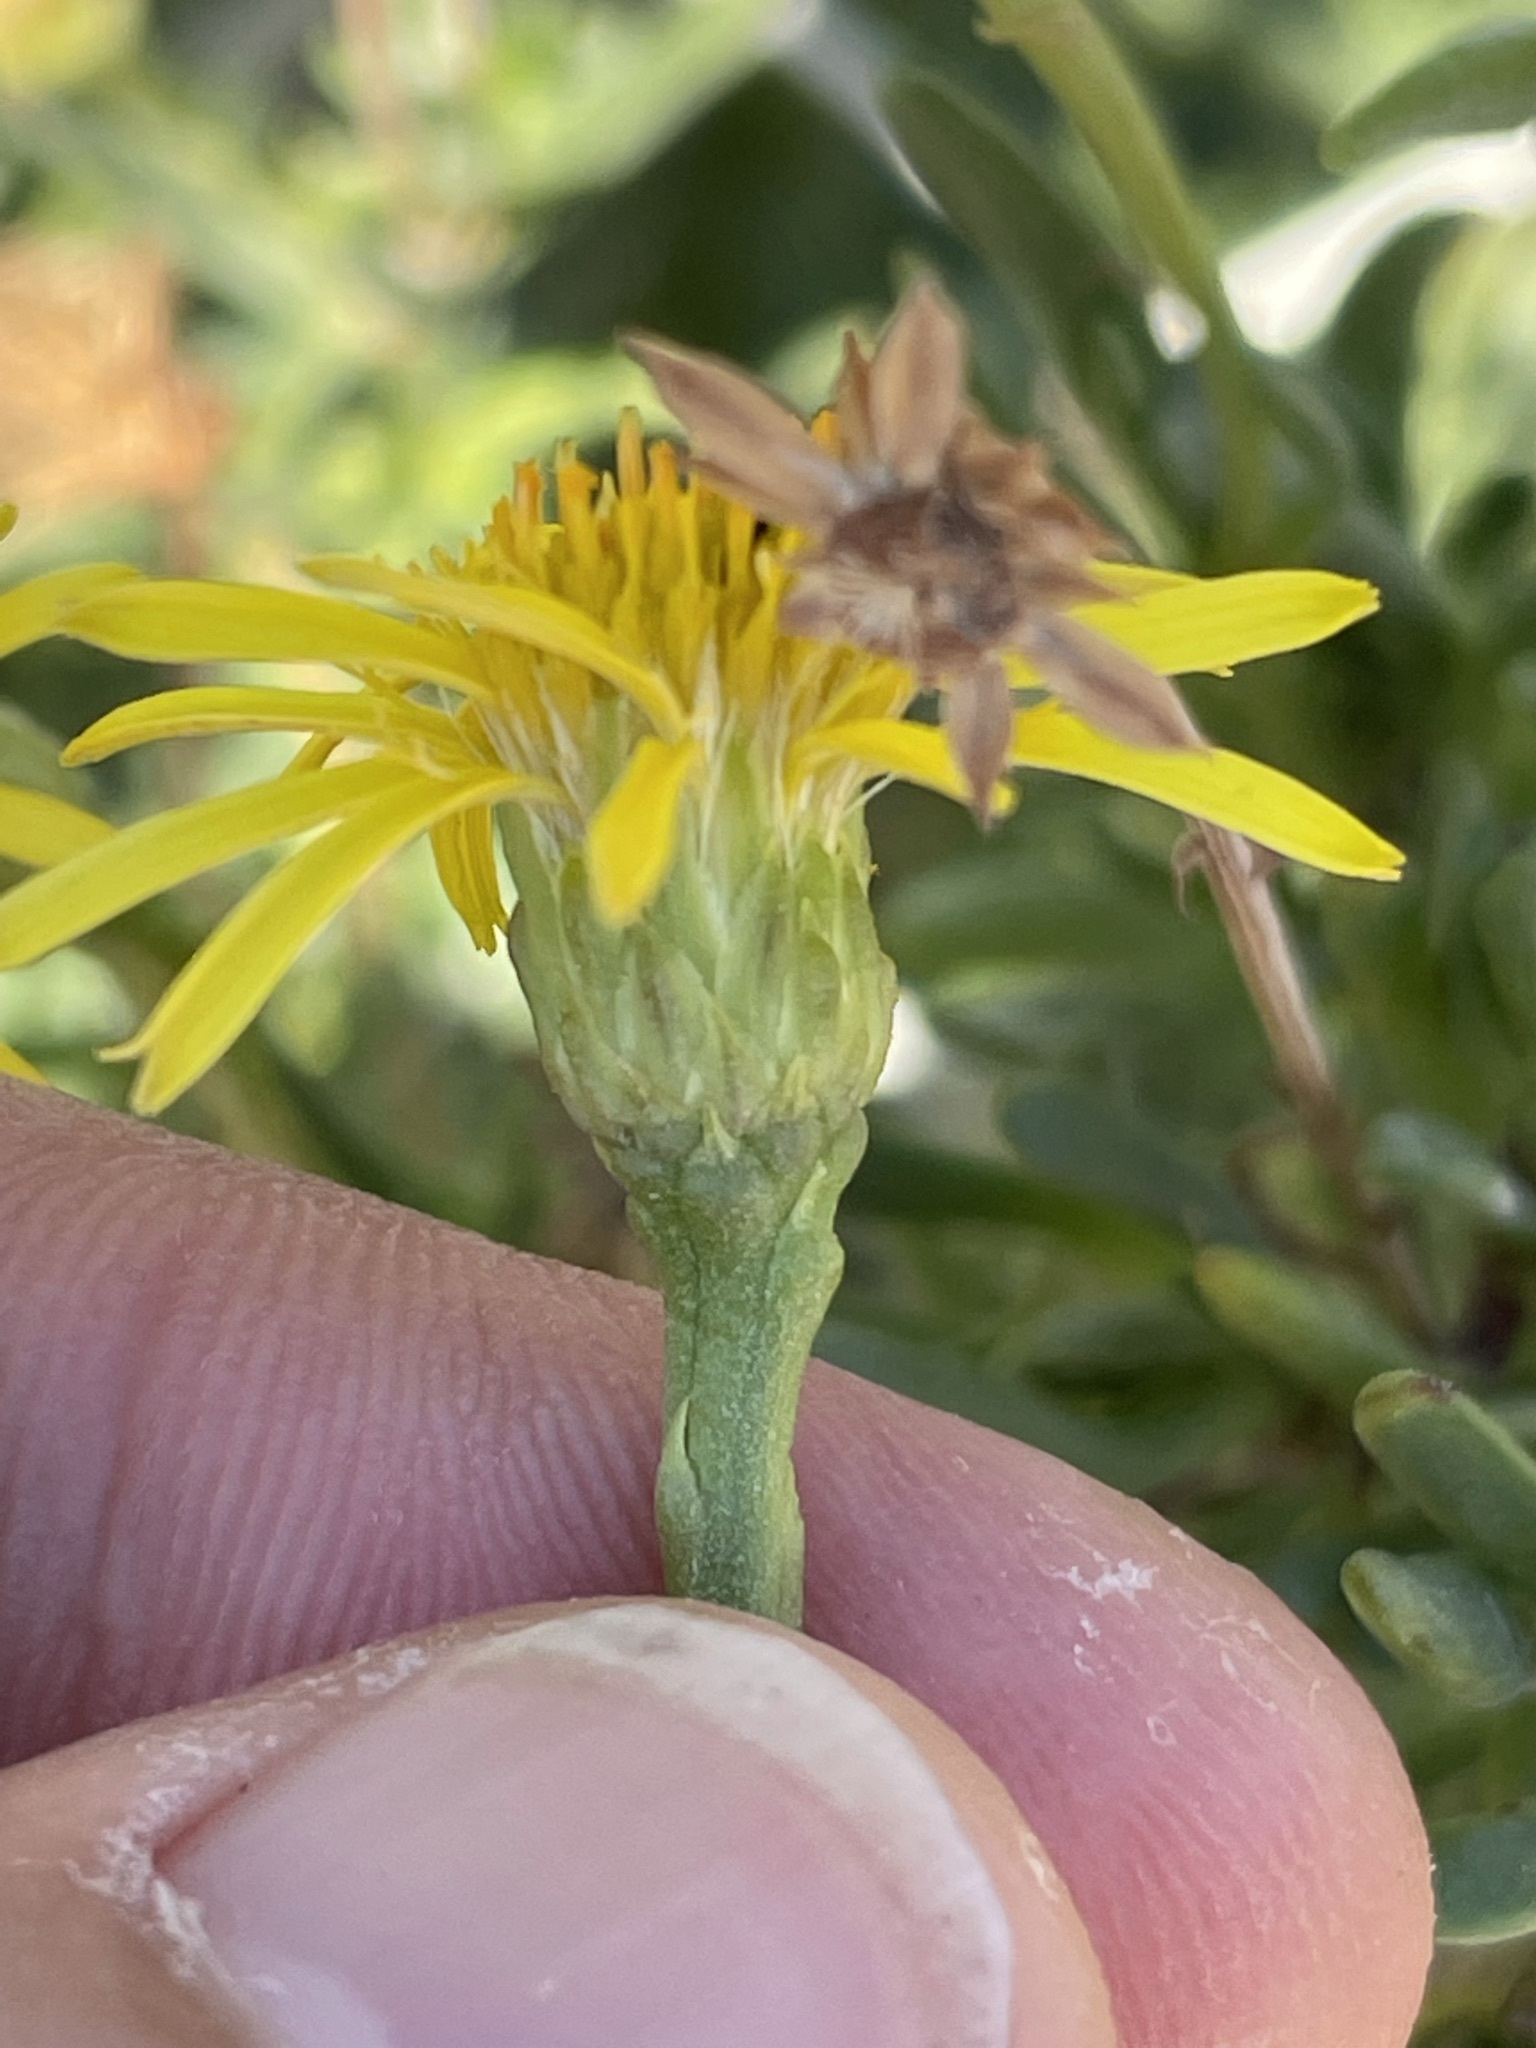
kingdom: Plantae
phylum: Tracheophyta
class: Magnoliopsida
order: Asterales
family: Asteraceae
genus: Limbarda
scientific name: Limbarda crithmoides
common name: Golden samphire
